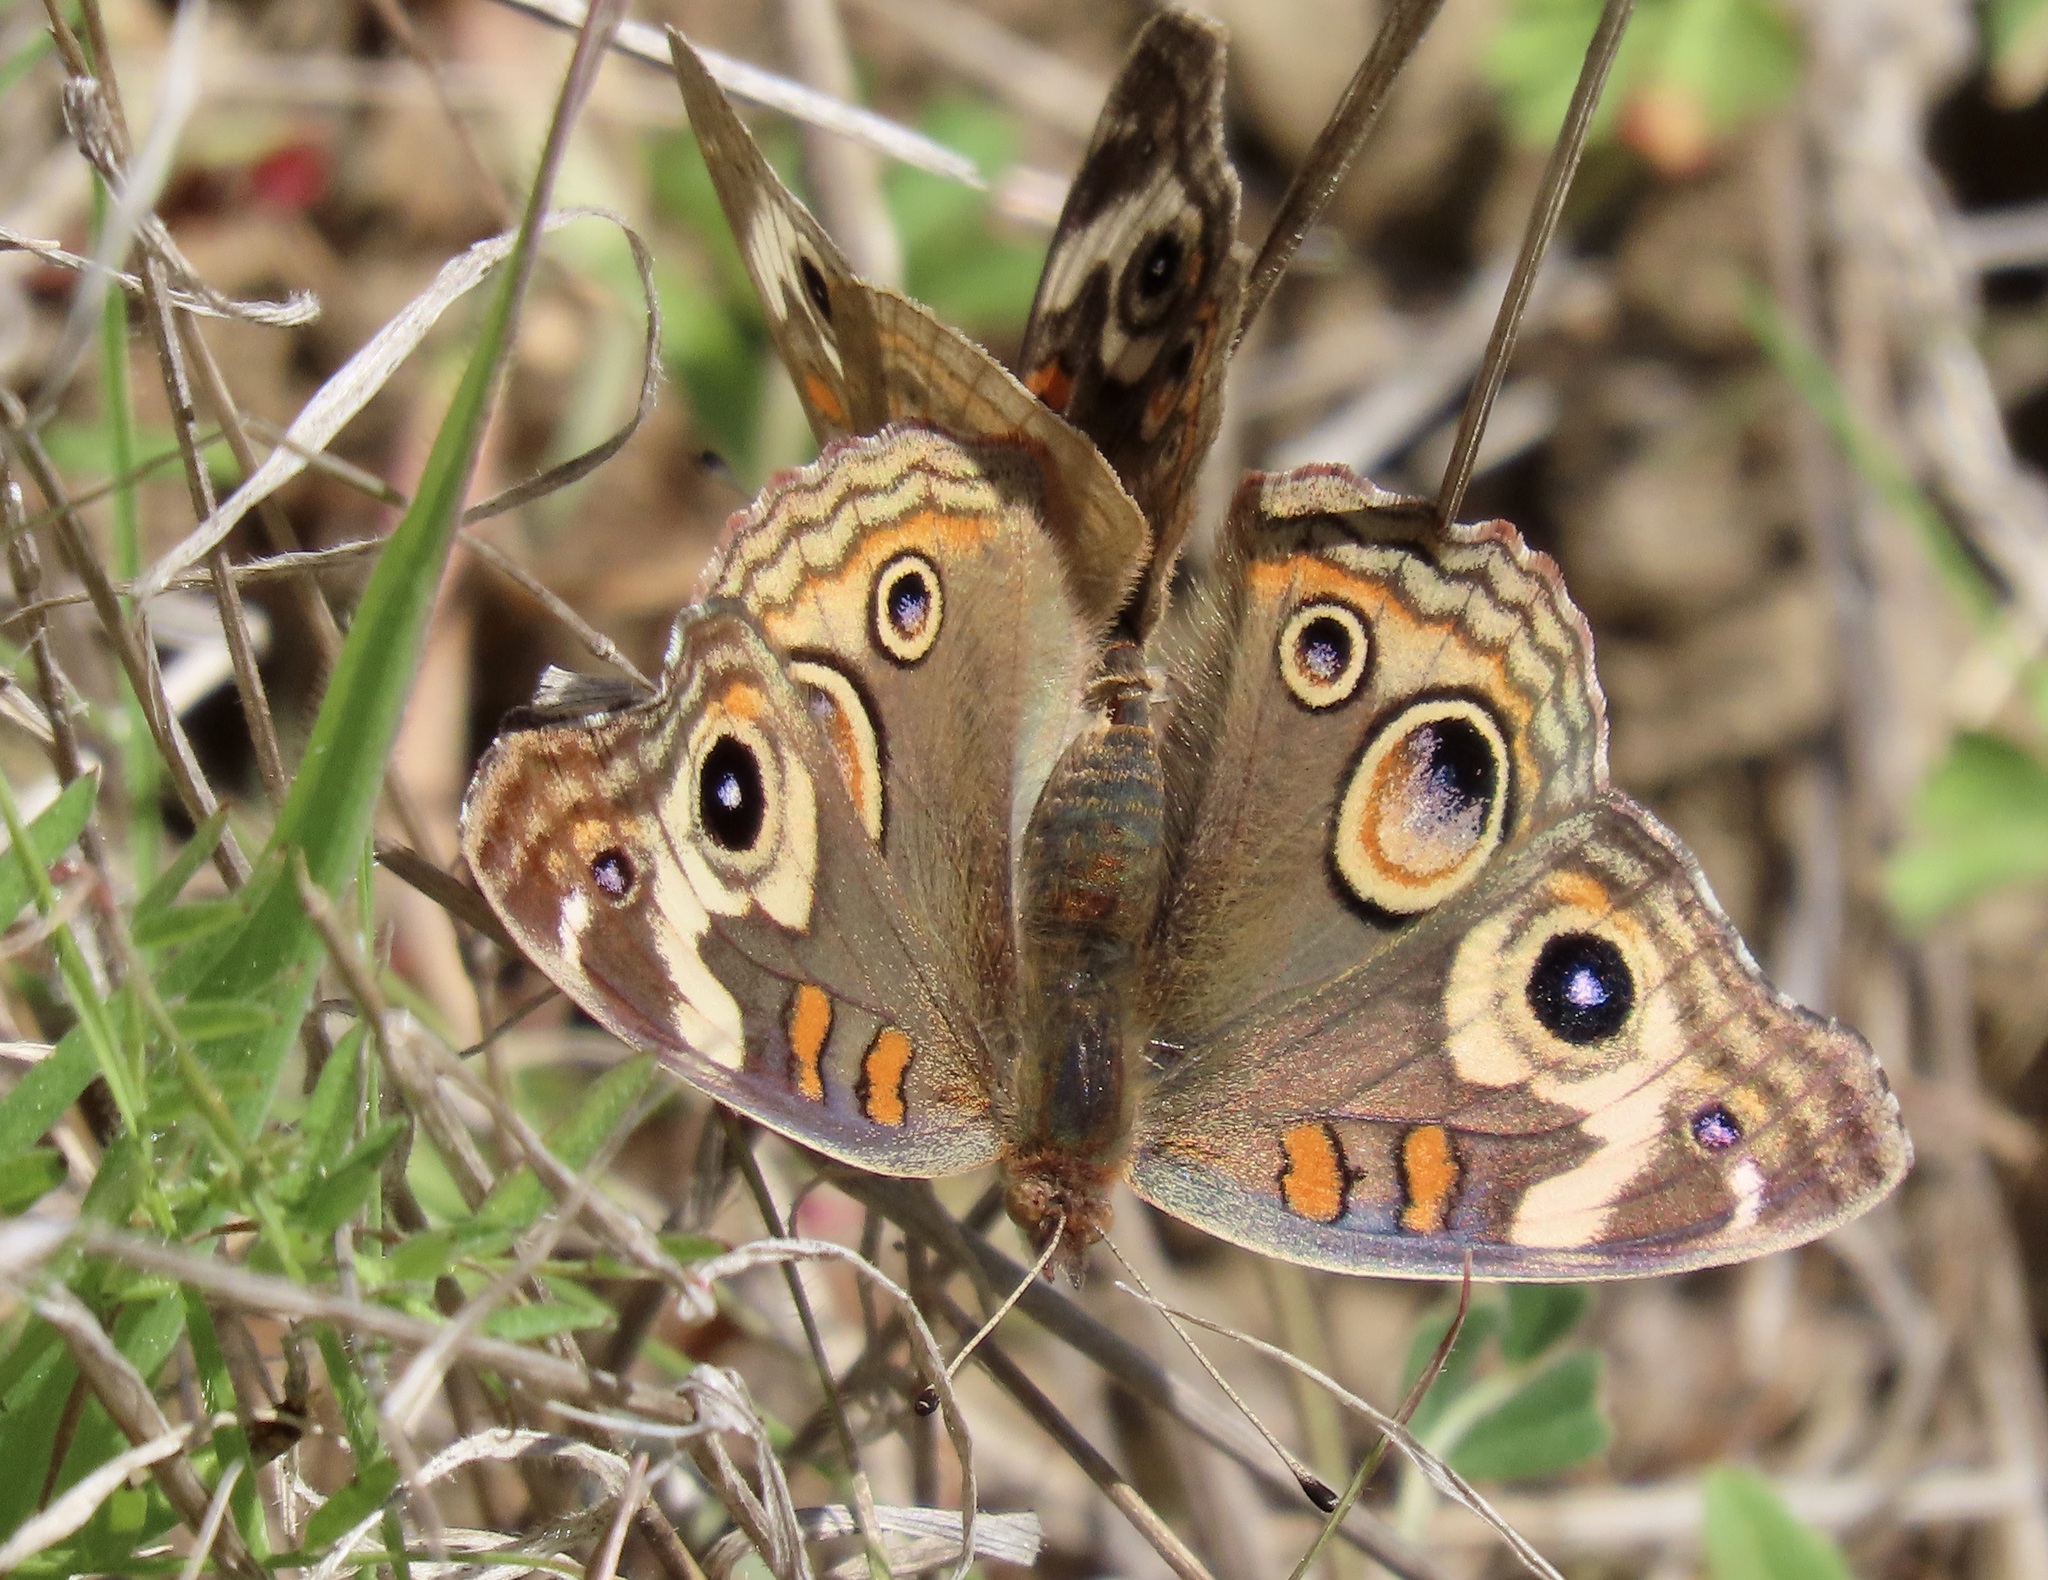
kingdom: Animalia
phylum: Arthropoda
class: Insecta
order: Lepidoptera
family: Nymphalidae
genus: Junonia
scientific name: Junonia grisea
